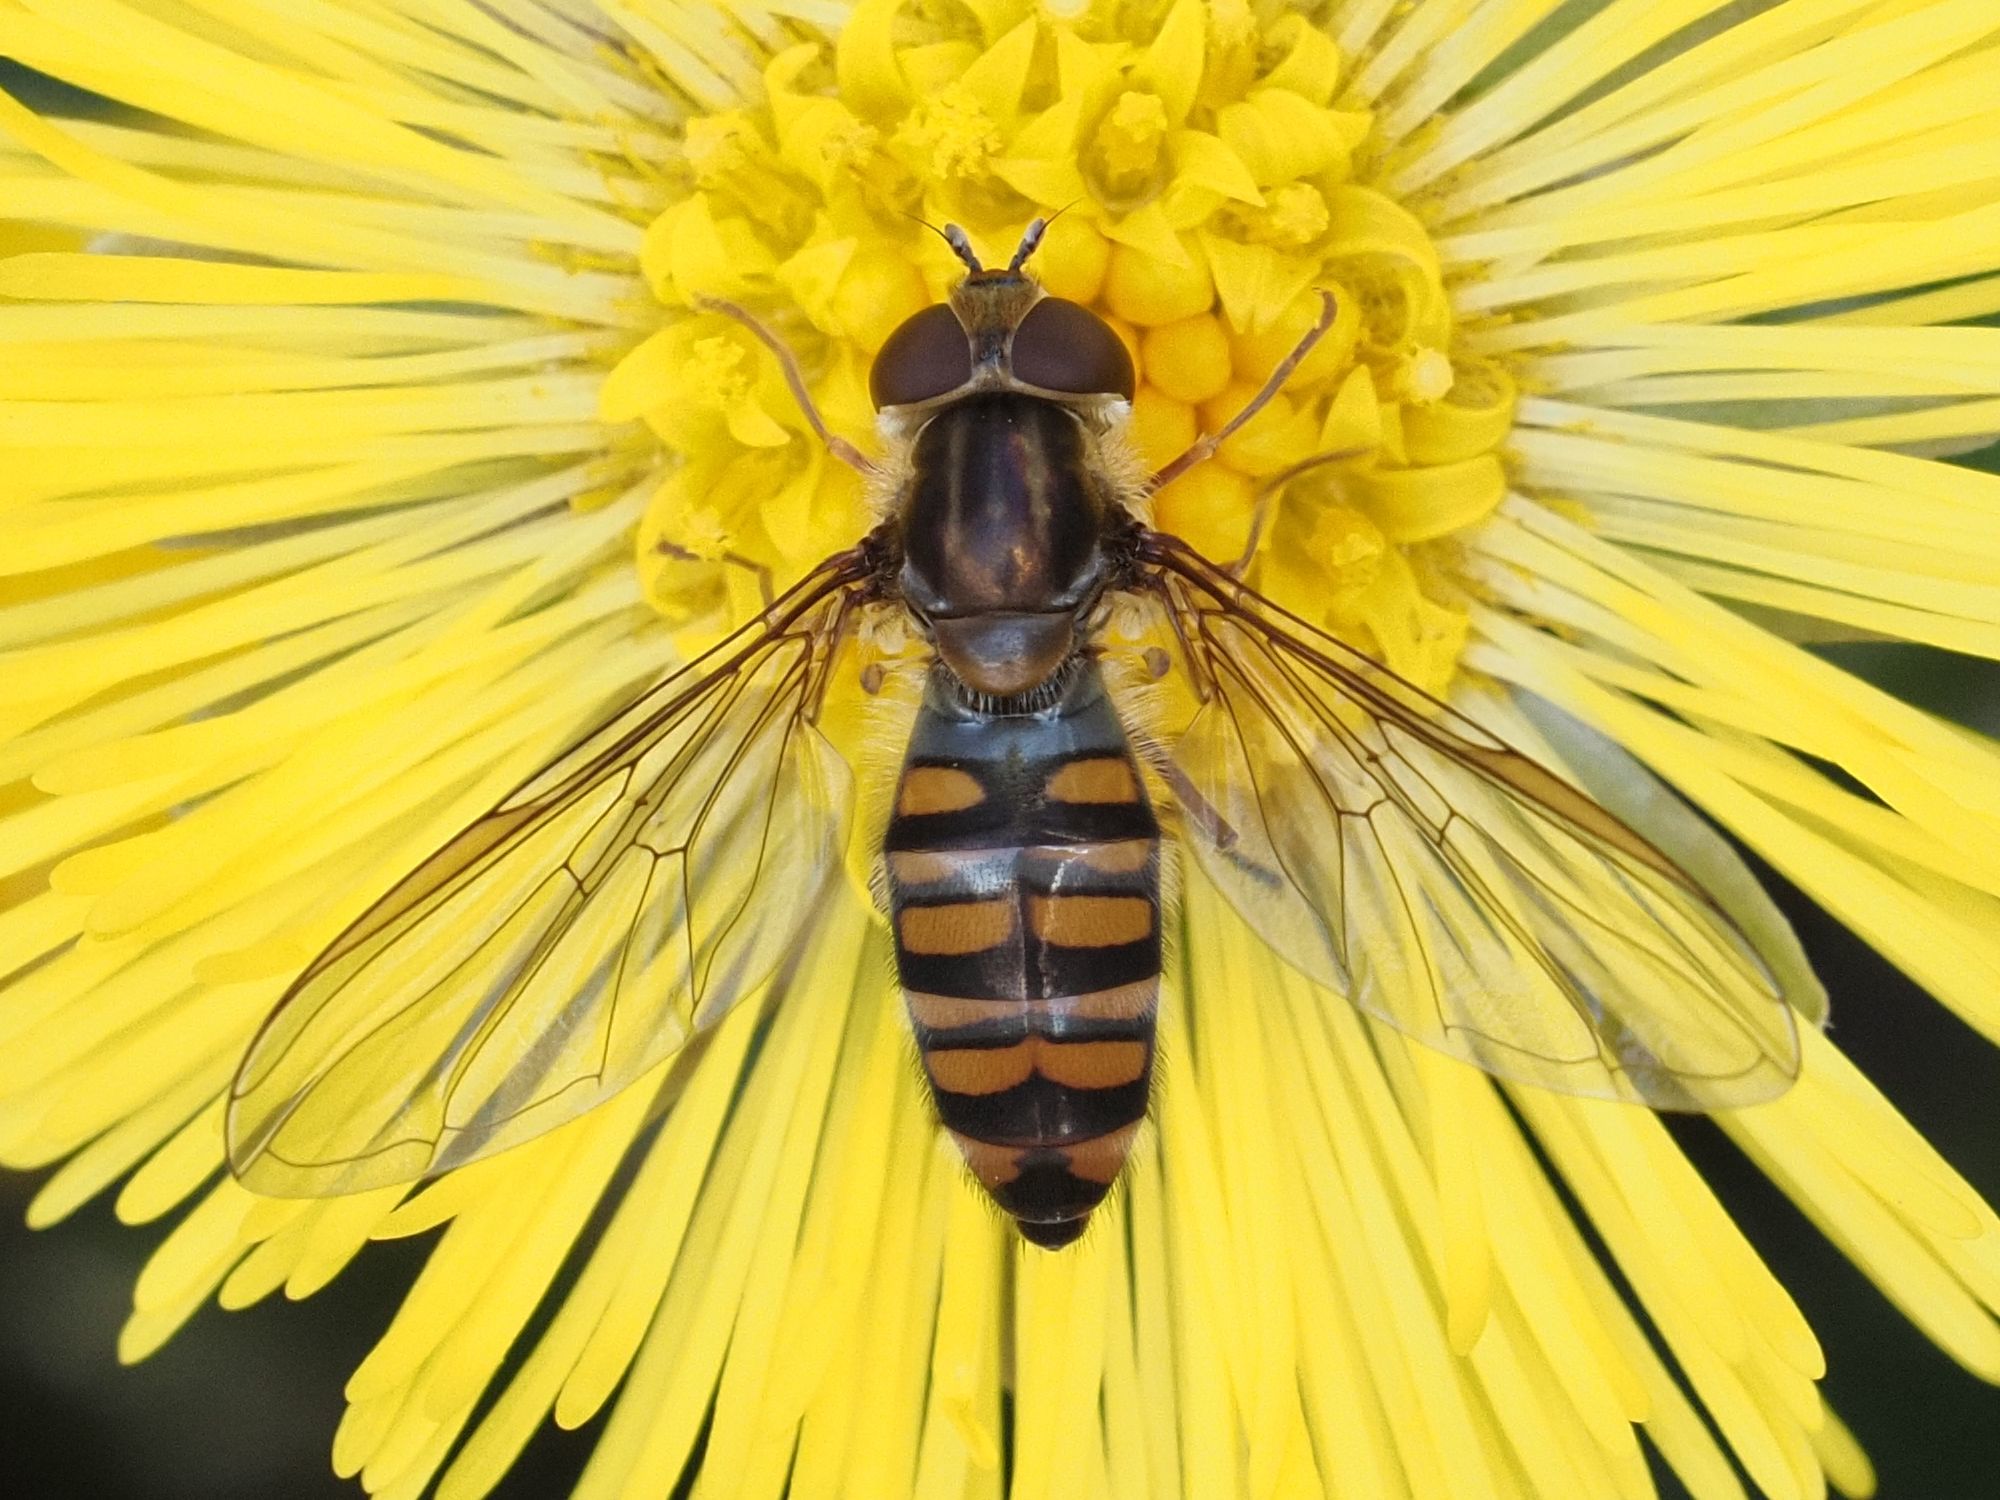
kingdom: Animalia
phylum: Arthropoda
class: Insecta
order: Diptera
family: Syrphidae
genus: Episyrphus
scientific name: Episyrphus balteatus
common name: Marmalade hoverfly
